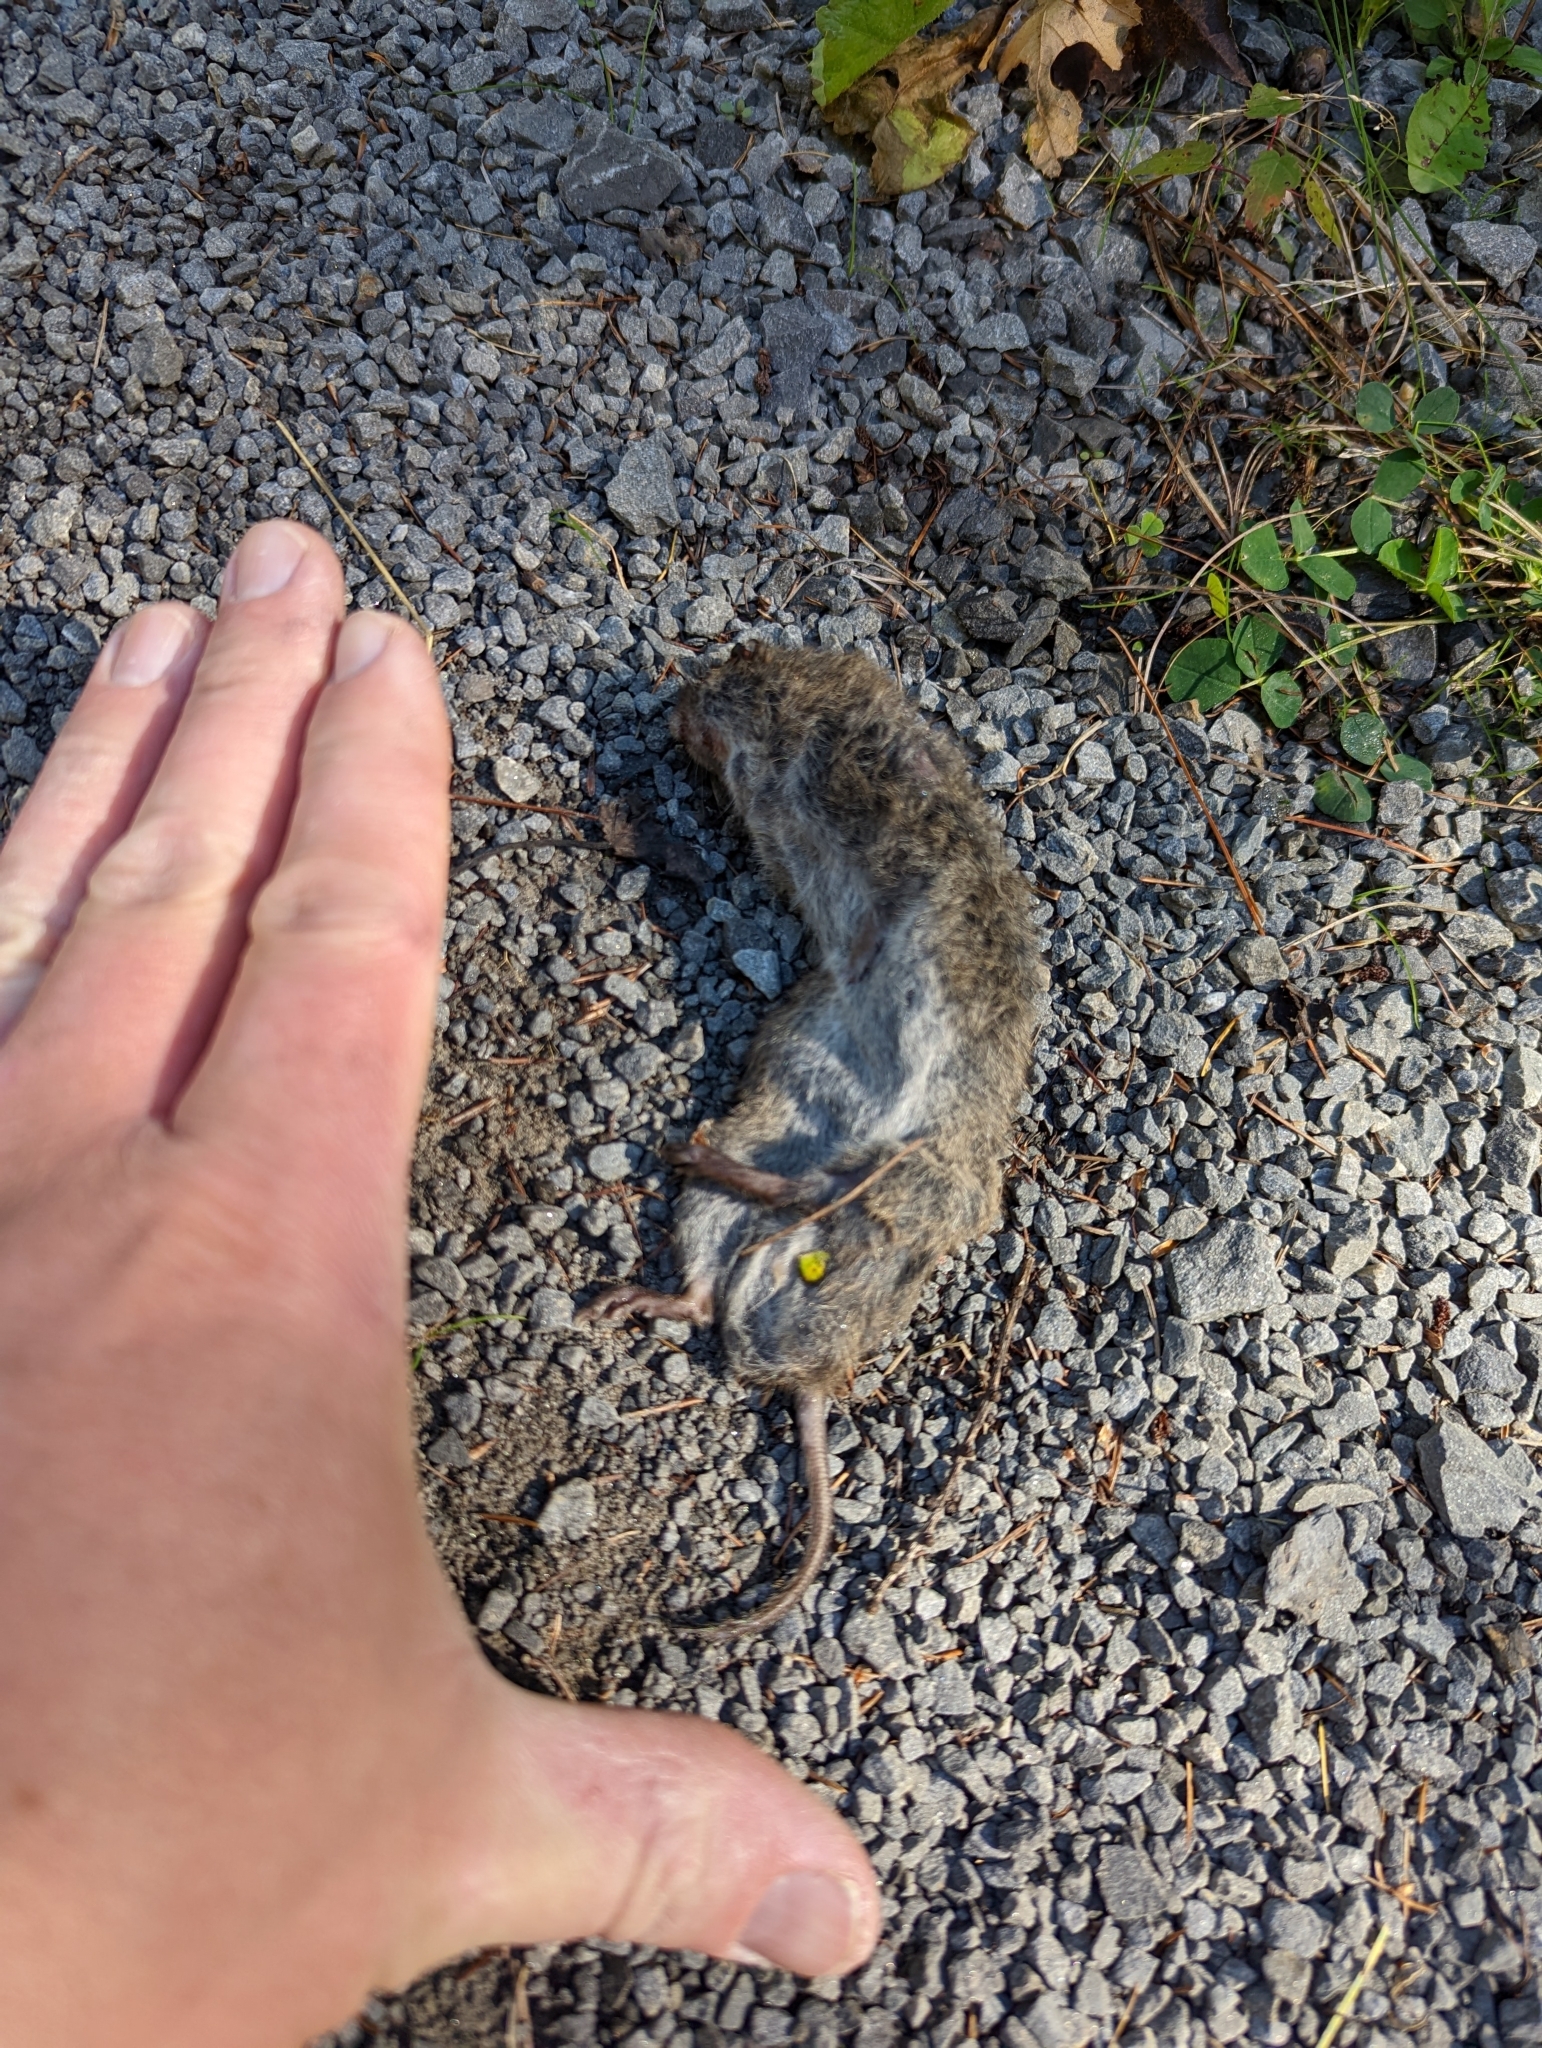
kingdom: Animalia
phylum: Chordata
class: Mammalia
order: Rodentia
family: Cricetidae
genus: Microtus
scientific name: Microtus pennsylvanicus
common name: Meadow vole
